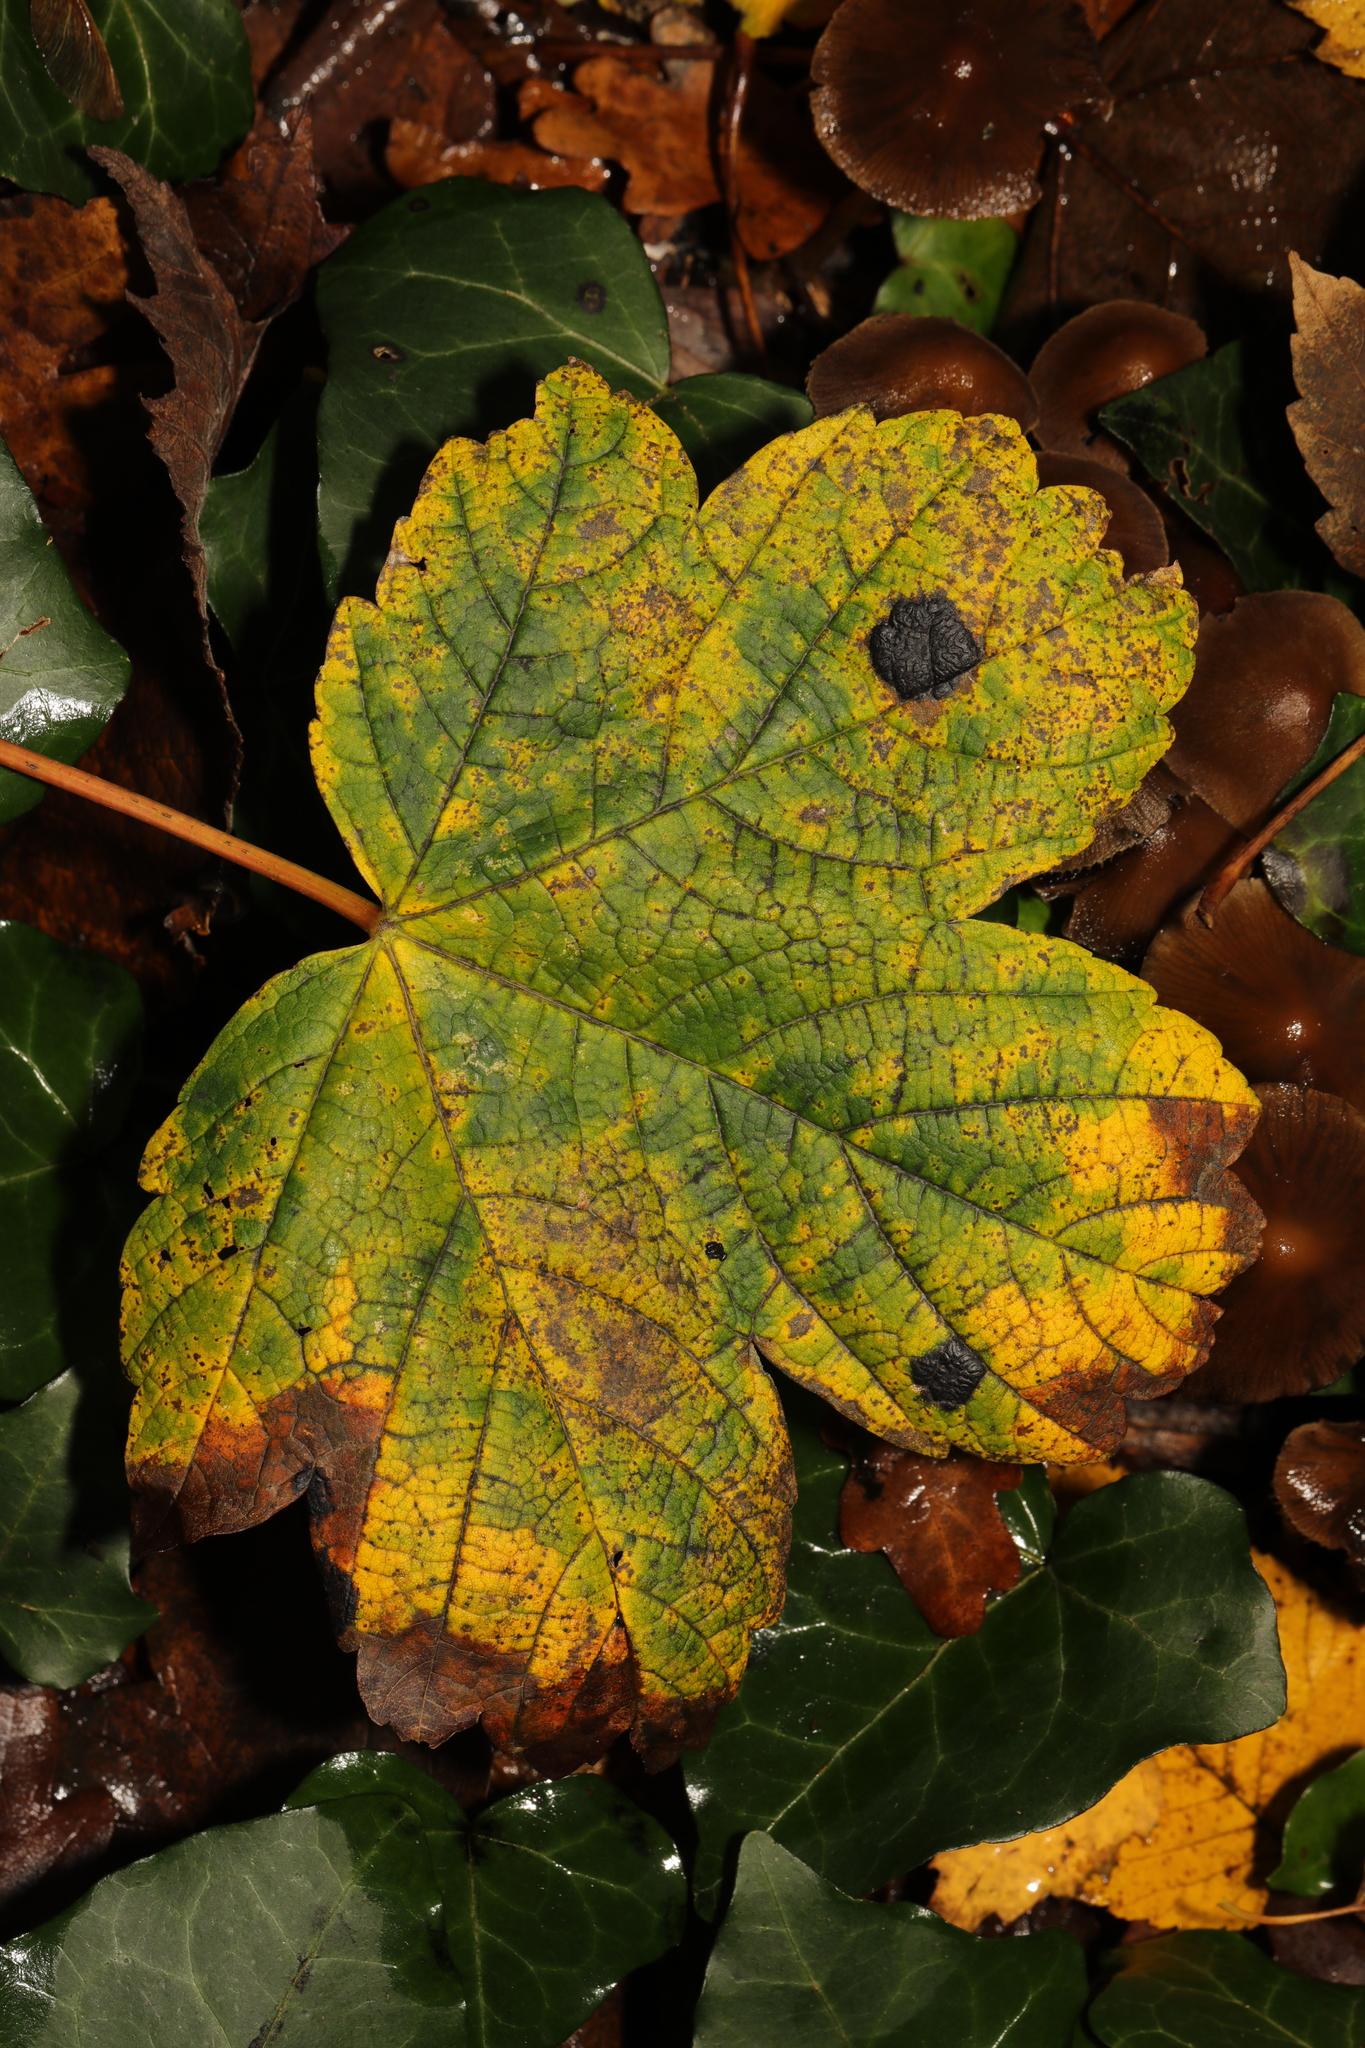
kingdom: Fungi
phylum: Ascomycota
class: Leotiomycetes
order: Rhytismatales
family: Rhytismataceae
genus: Rhytisma
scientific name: Rhytisma acerinum
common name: European tar spot
